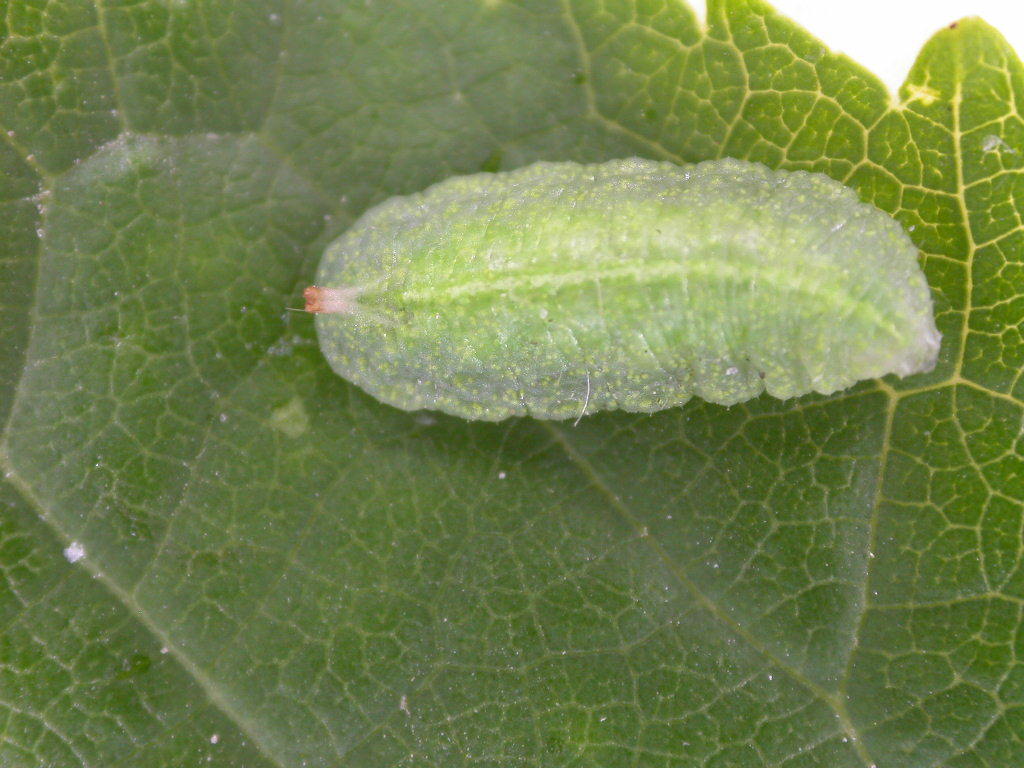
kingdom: Animalia
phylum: Arthropoda
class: Insecta
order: Diptera
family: Syrphidae
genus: Epistrophe
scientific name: Epistrophe
